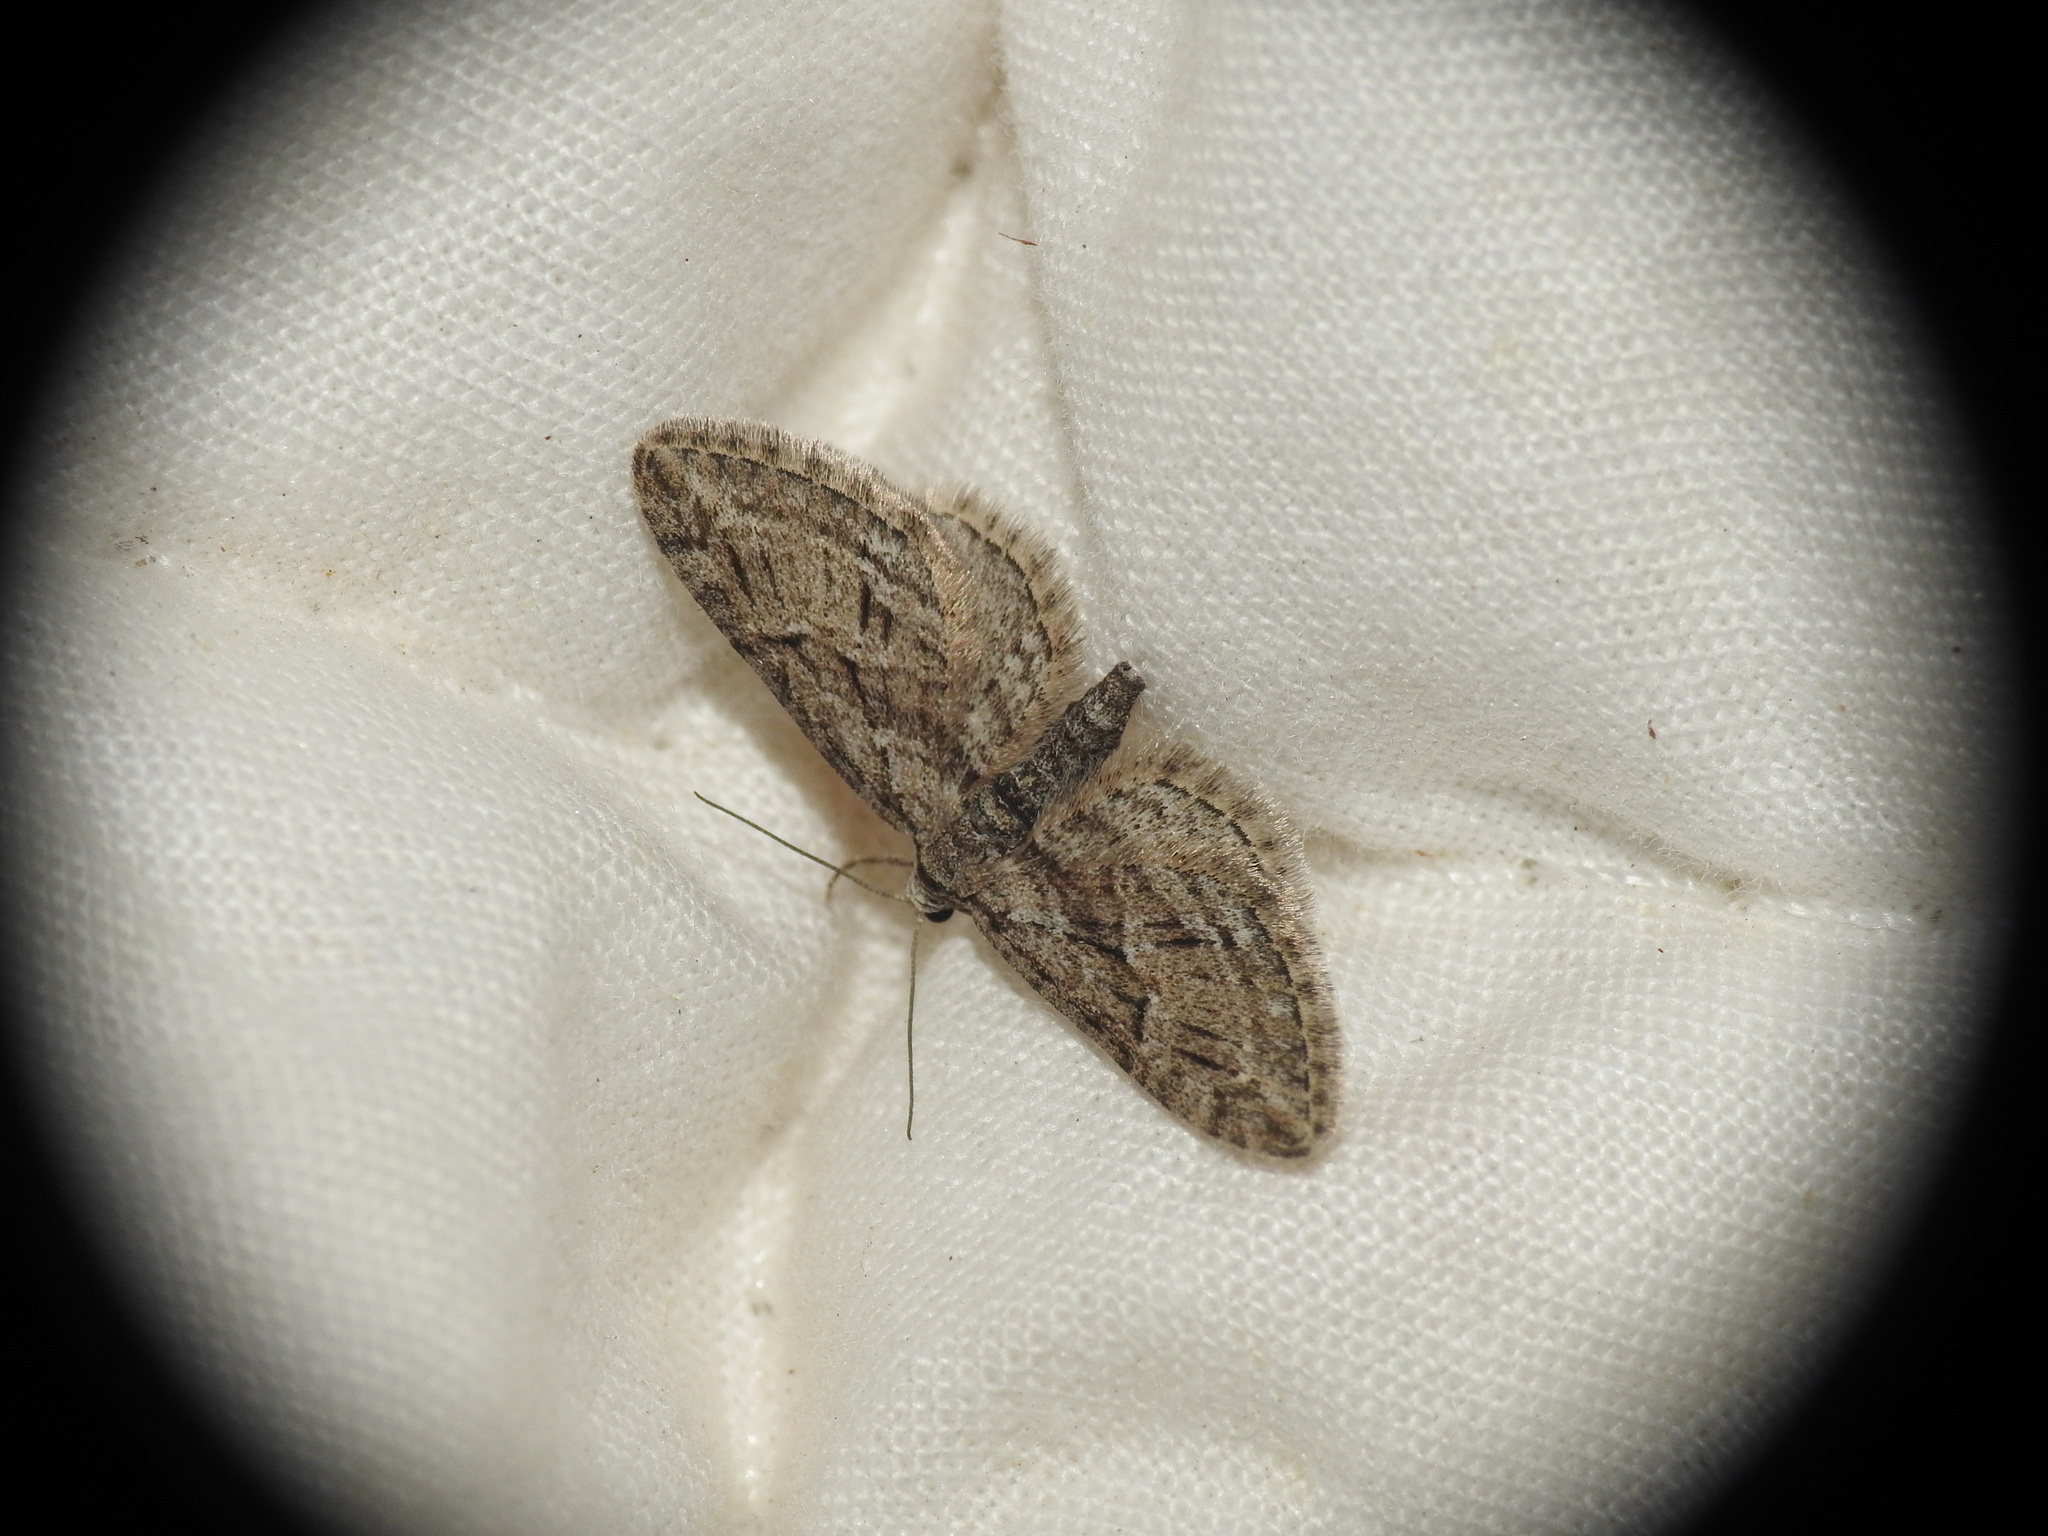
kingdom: Animalia
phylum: Arthropoda
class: Insecta
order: Lepidoptera
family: Geometridae
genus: Eupithecia
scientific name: Eupithecia oxycedrata
